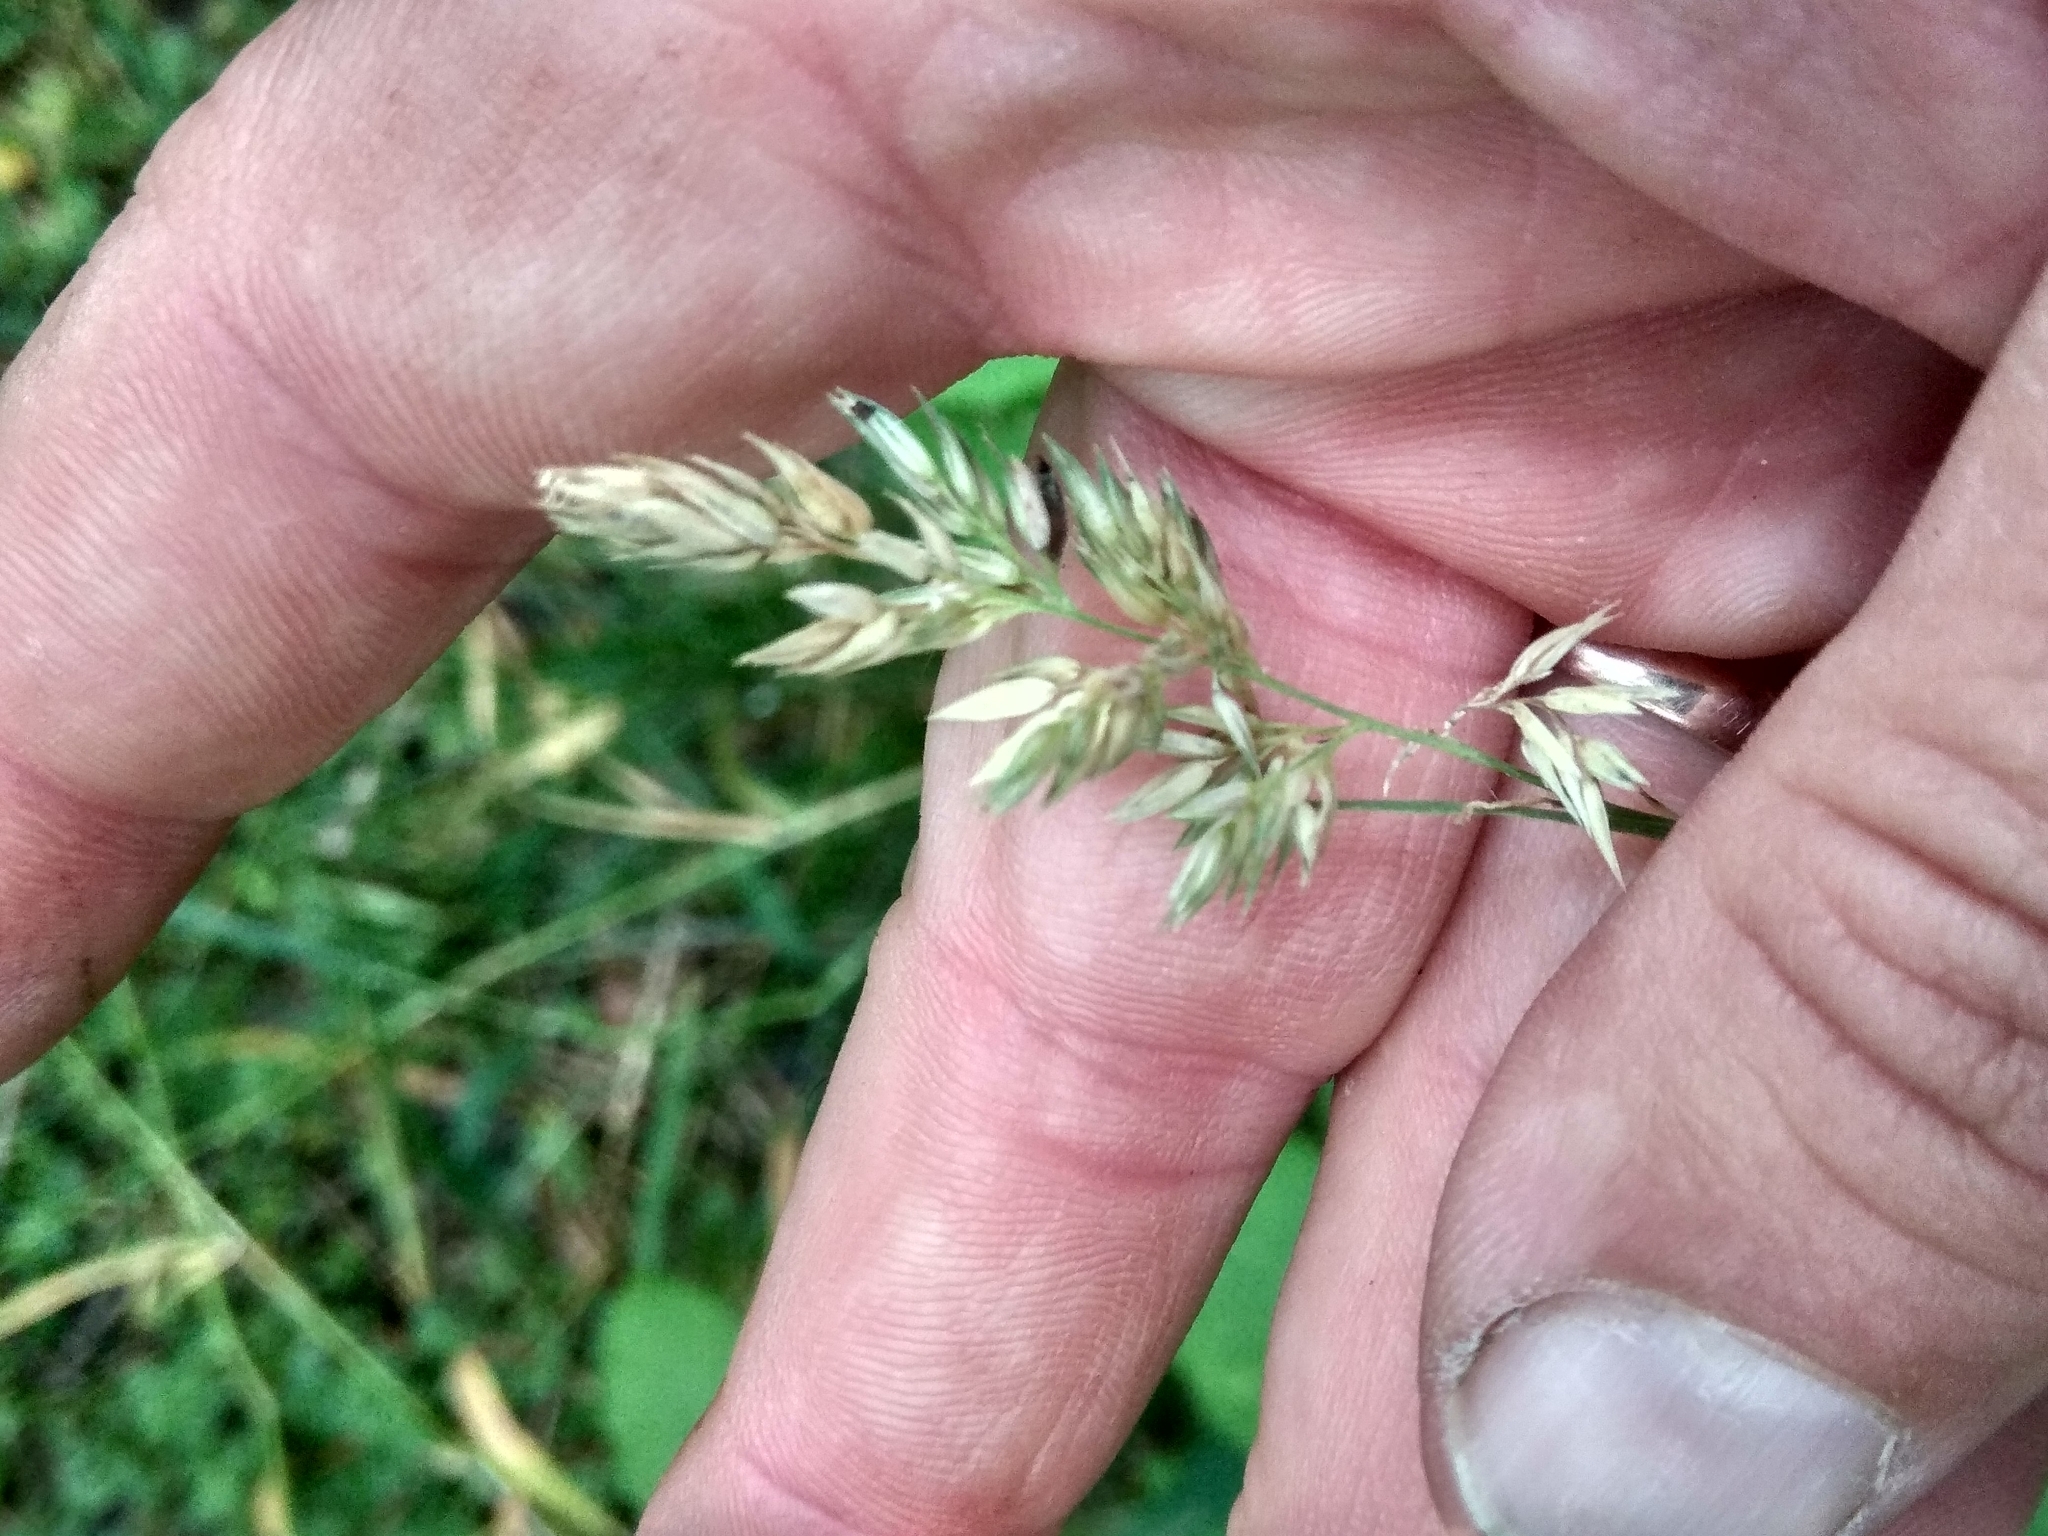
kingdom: Plantae
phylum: Tracheophyta
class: Liliopsida
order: Poales
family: Poaceae
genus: Phalaris
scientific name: Phalaris arundinacea
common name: Reed canary-grass
